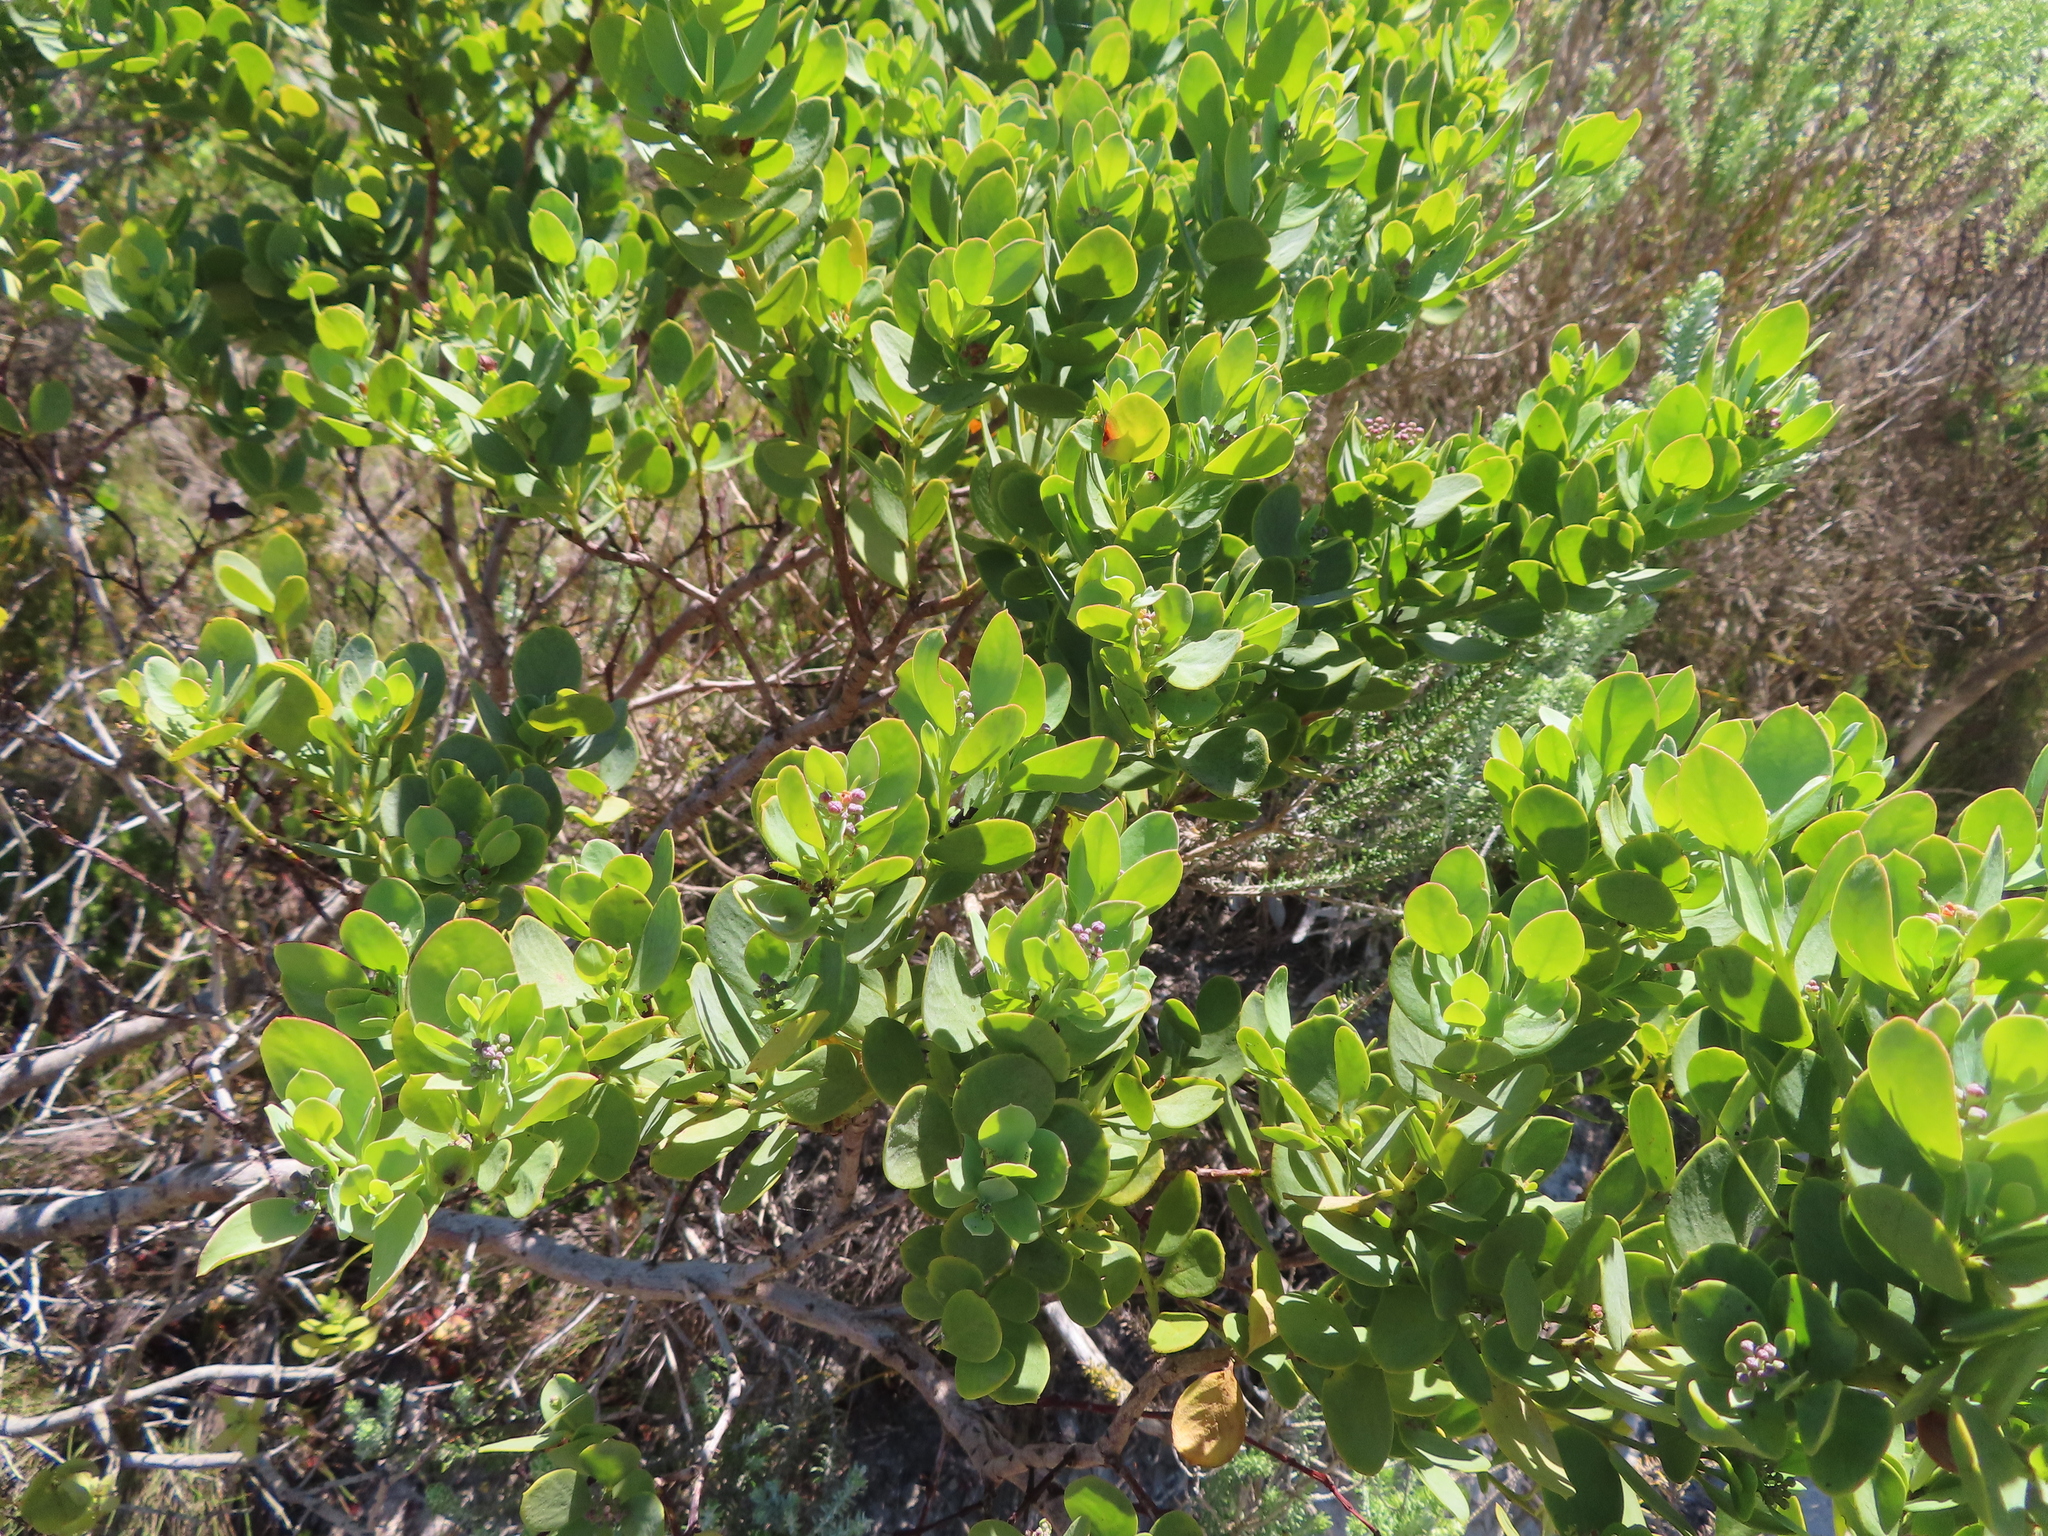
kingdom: Plantae
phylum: Tracheophyta
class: Magnoliopsida
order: Santalales
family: Santalaceae
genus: Osyris
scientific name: Osyris compressa
